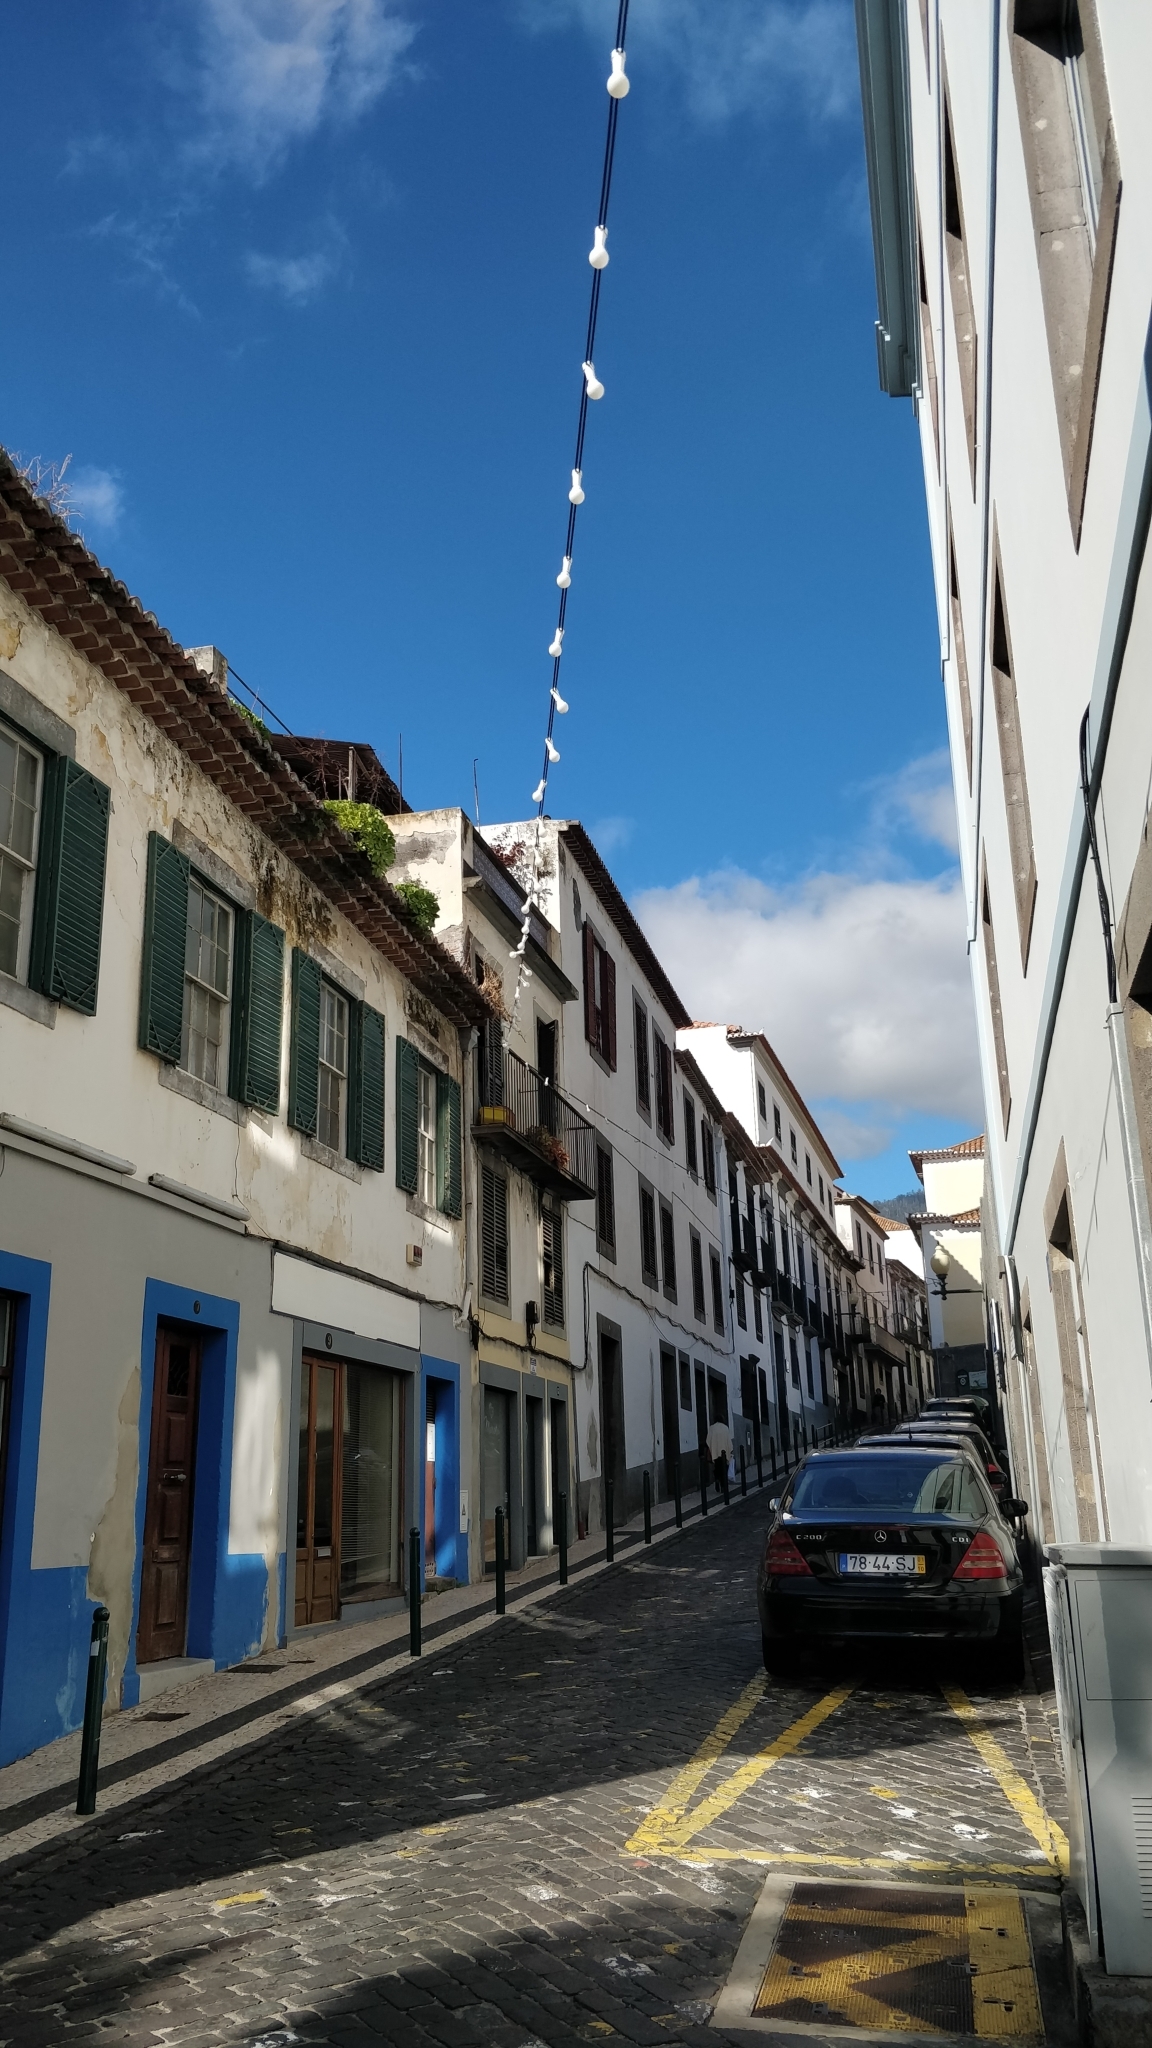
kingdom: Plantae
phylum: Tracheophyta
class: Magnoliopsida
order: Saxifragales
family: Crassulaceae
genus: Aeonium
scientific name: Aeonium glutinosum
